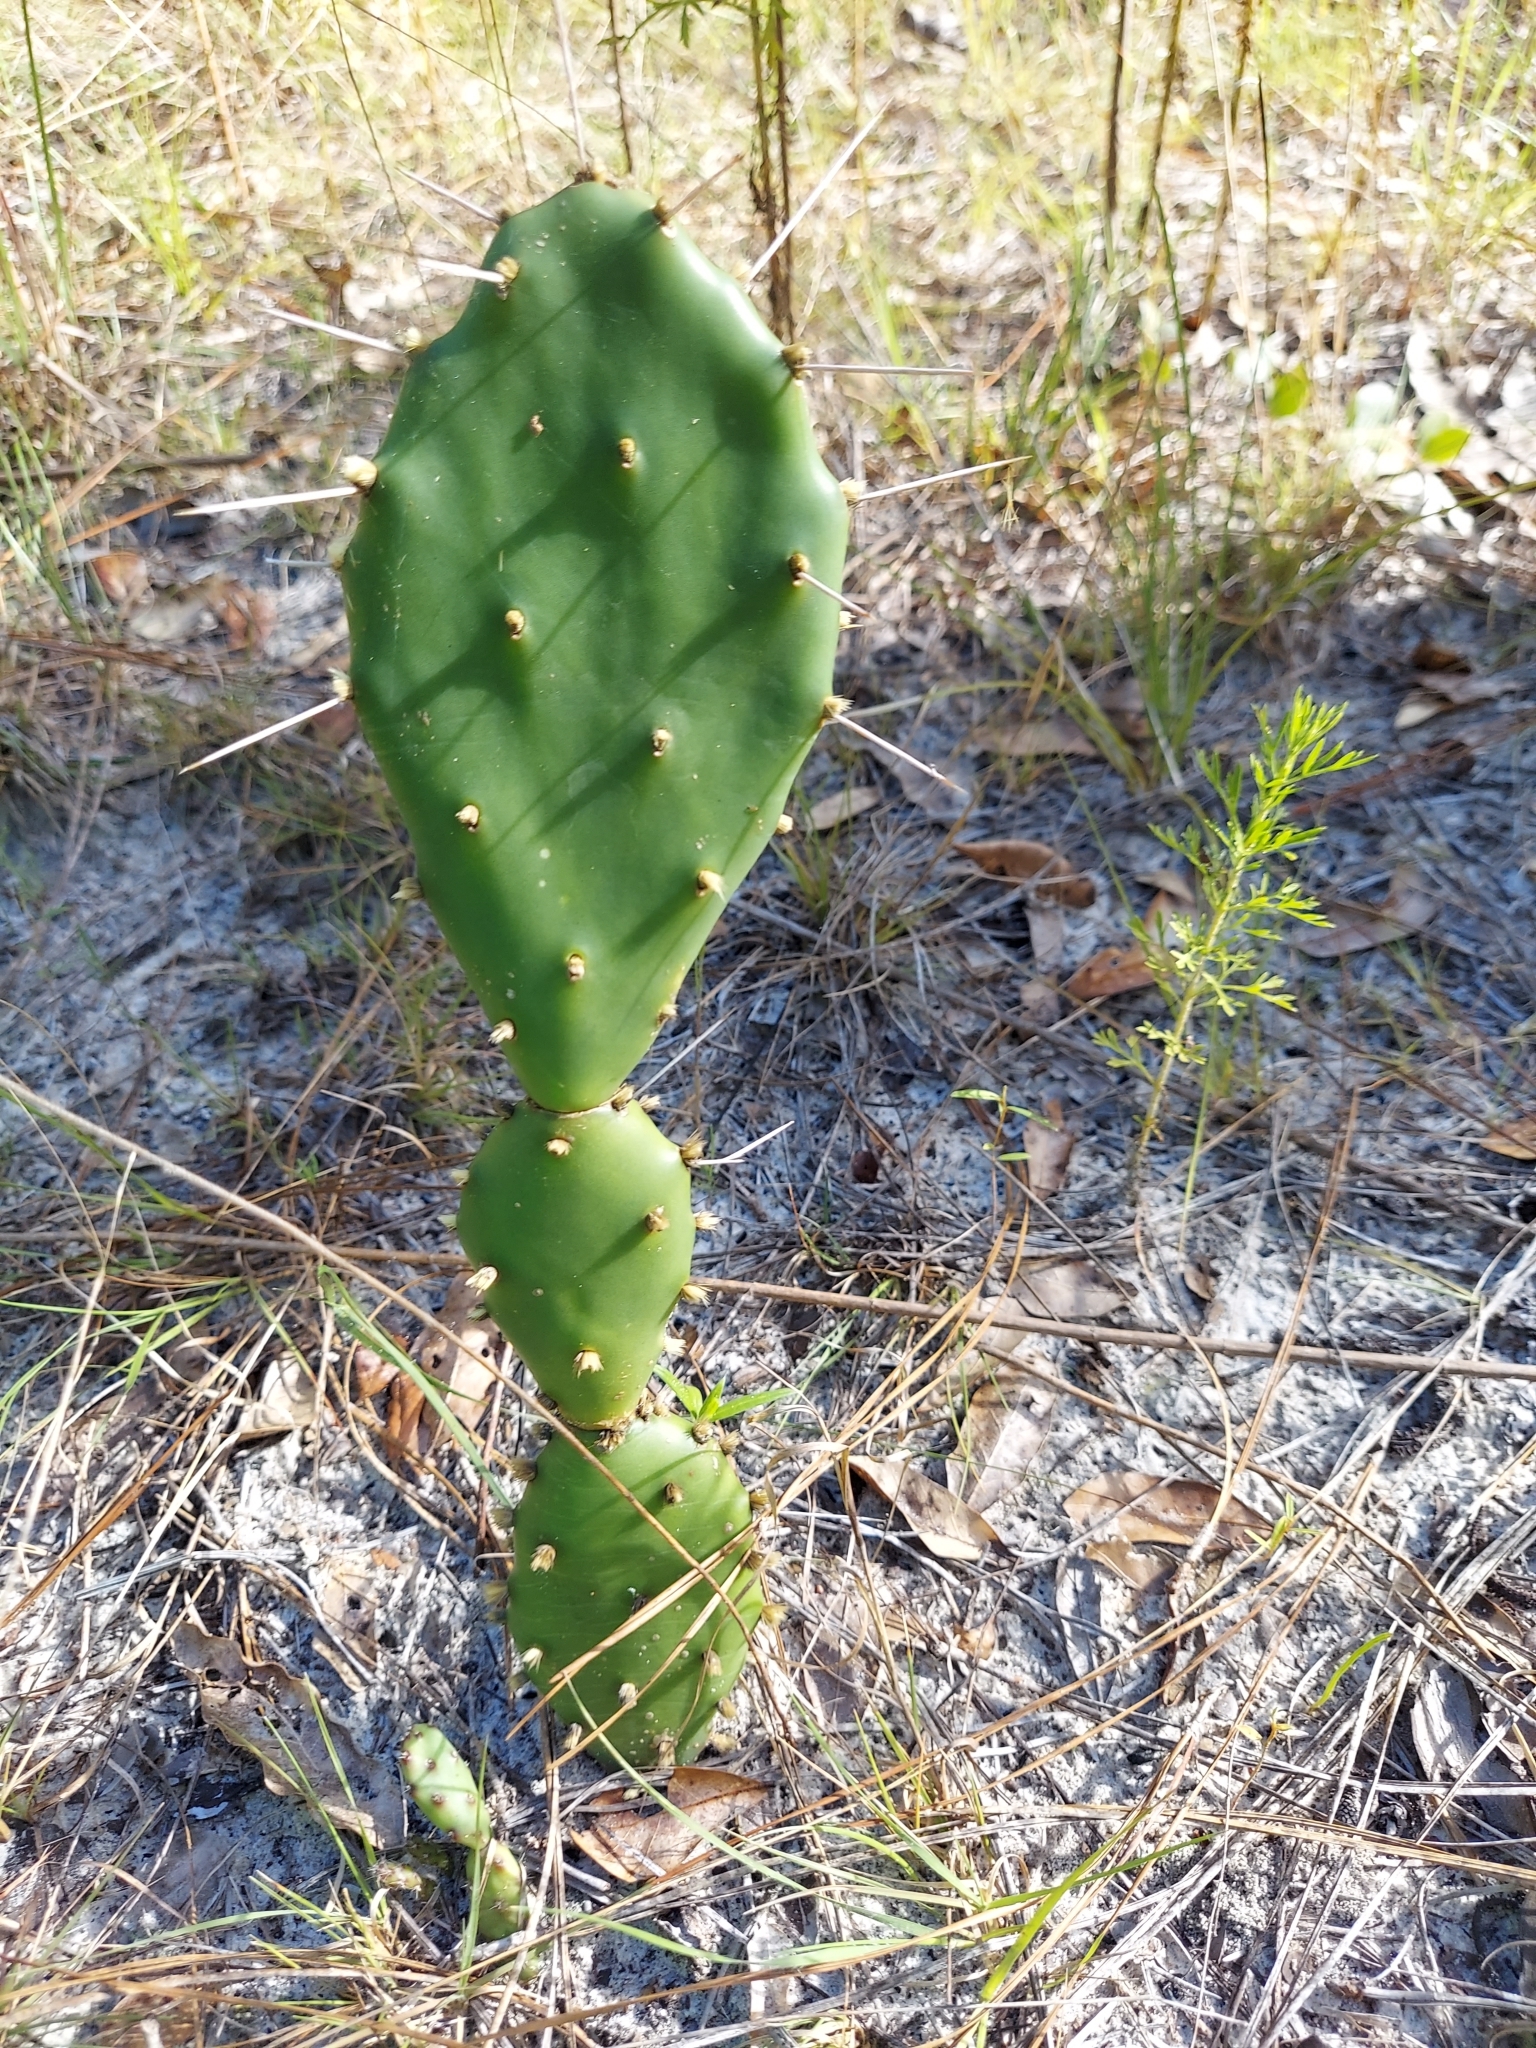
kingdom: Plantae
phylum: Tracheophyta
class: Magnoliopsida
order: Caryophyllales
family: Cactaceae
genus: Opuntia
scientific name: Opuntia austrina
